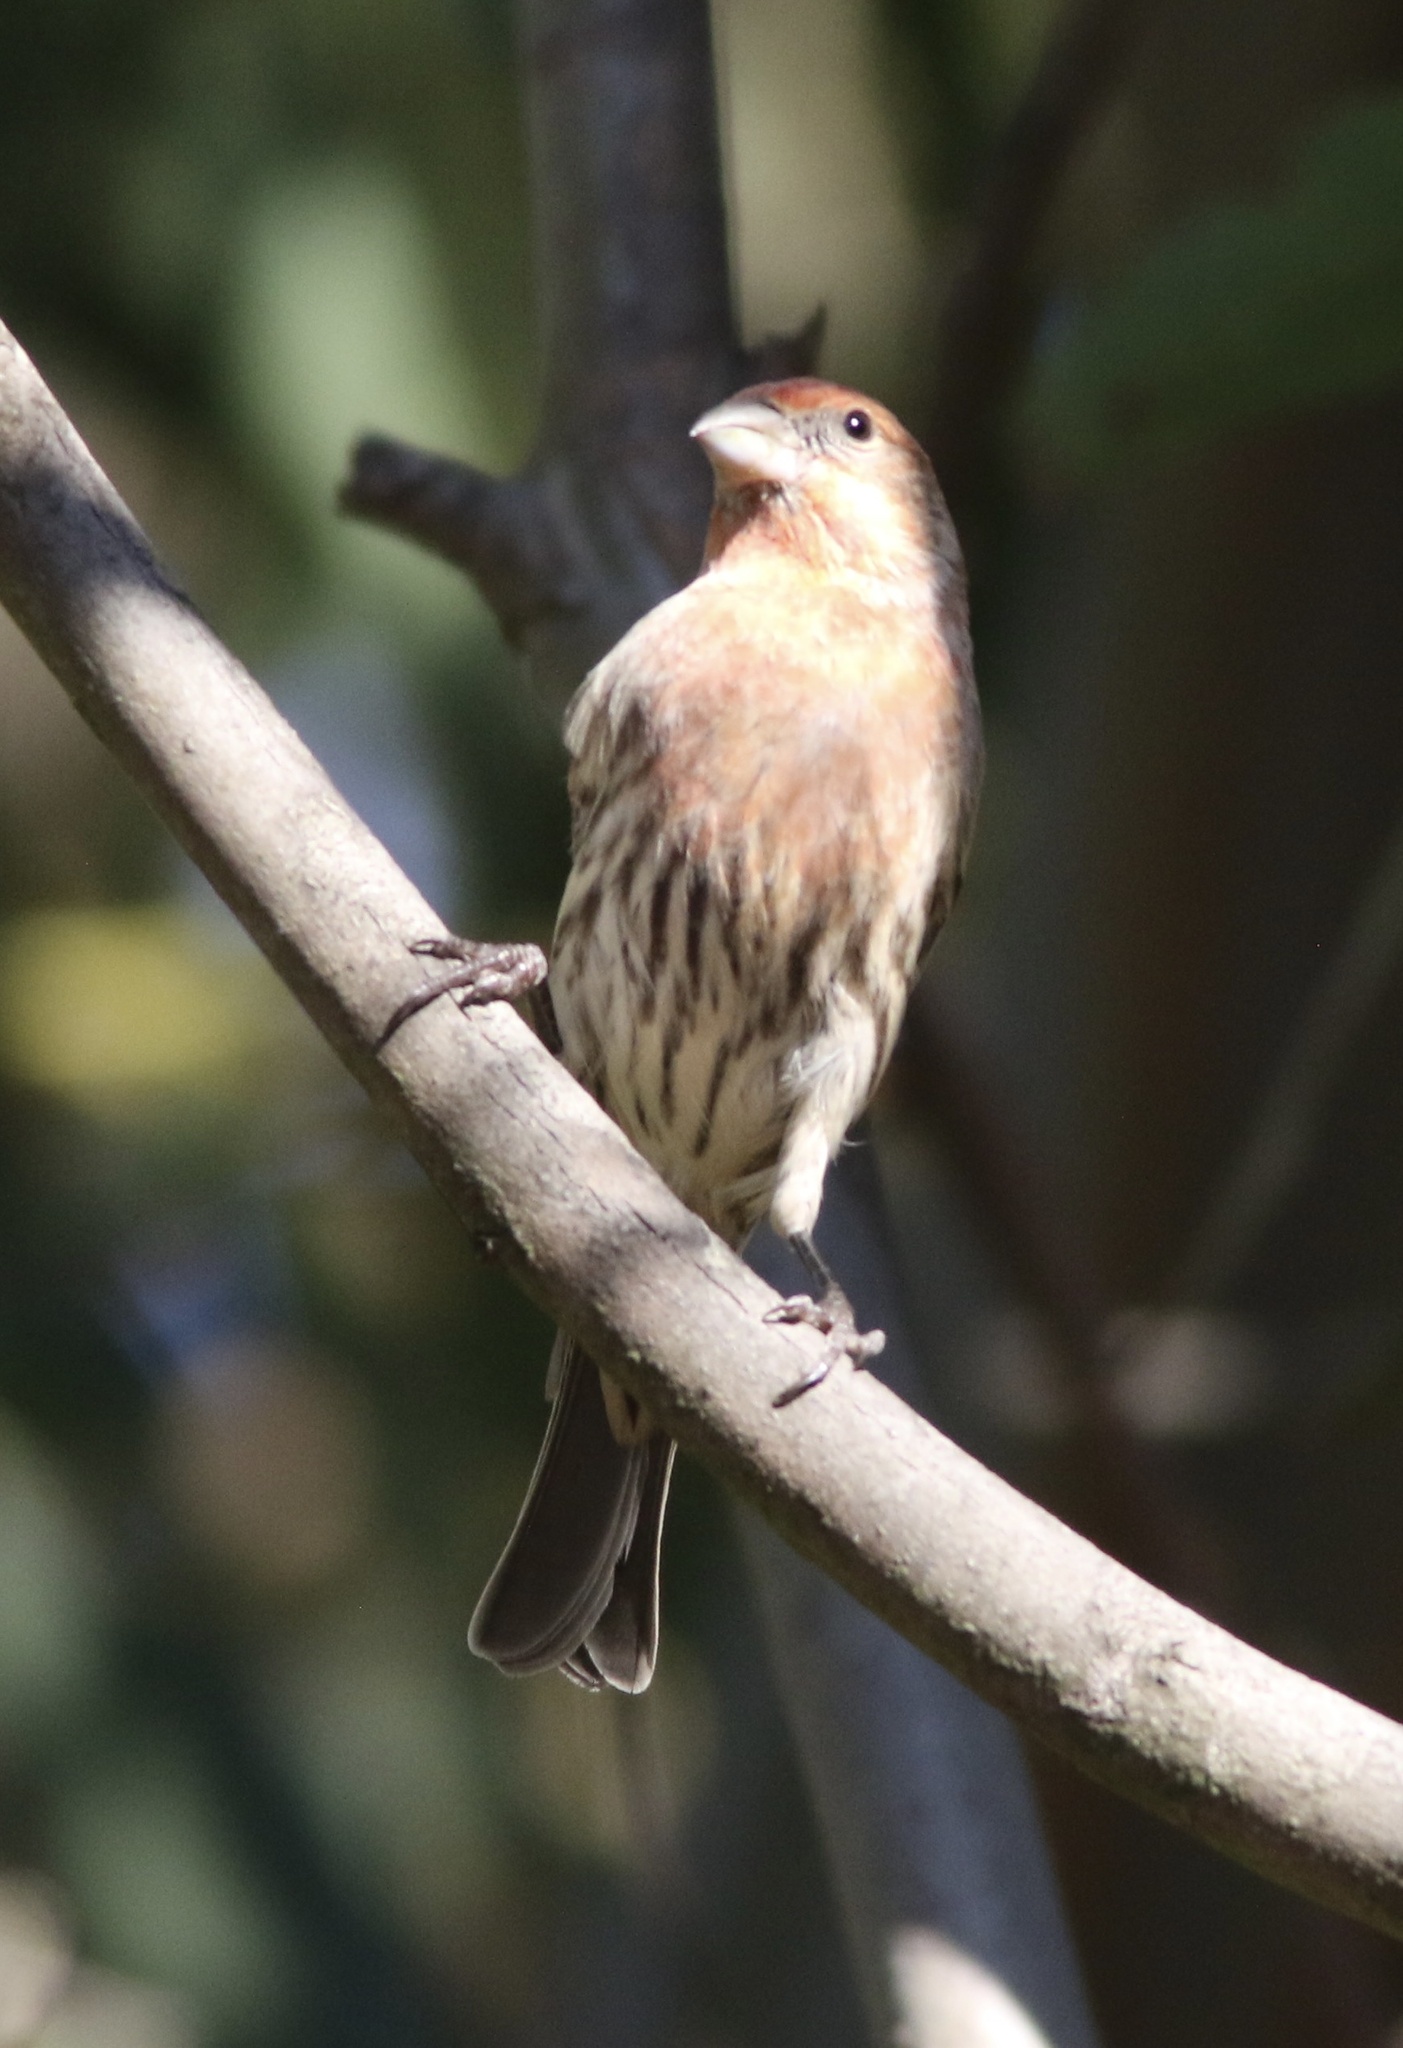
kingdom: Animalia
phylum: Chordata
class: Aves
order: Passeriformes
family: Fringillidae
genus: Haemorhous
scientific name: Haemorhous mexicanus
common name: House finch
